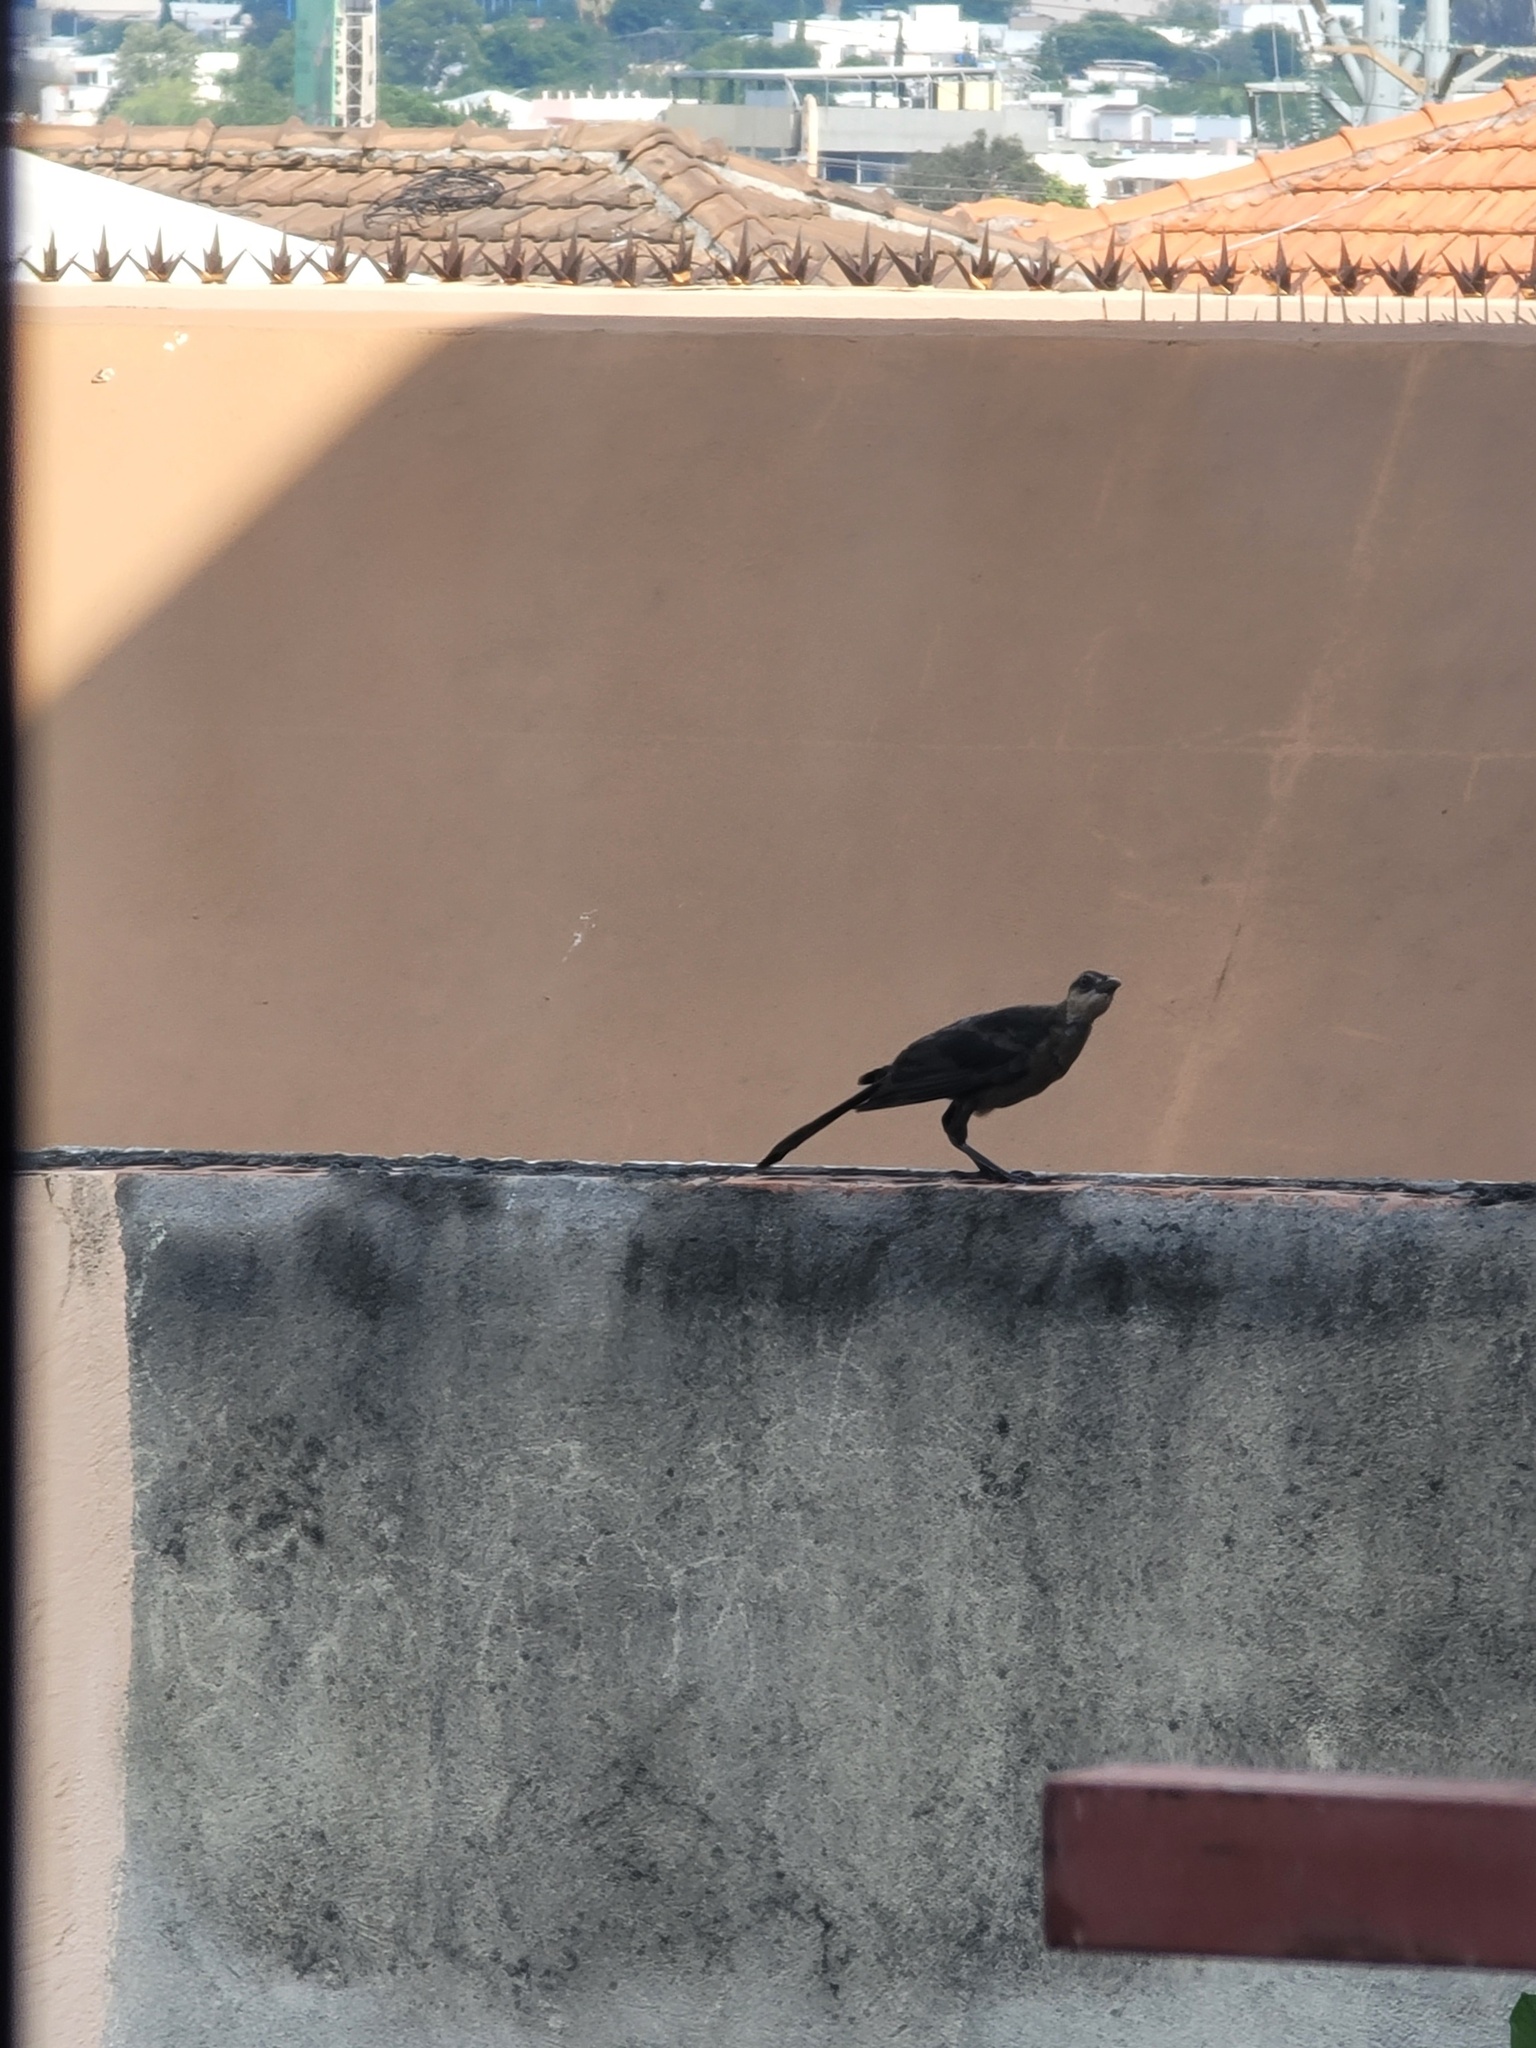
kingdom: Animalia
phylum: Chordata
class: Aves
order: Passeriformes
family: Icteridae
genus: Quiscalus
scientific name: Quiscalus mexicanus
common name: Great-tailed grackle
